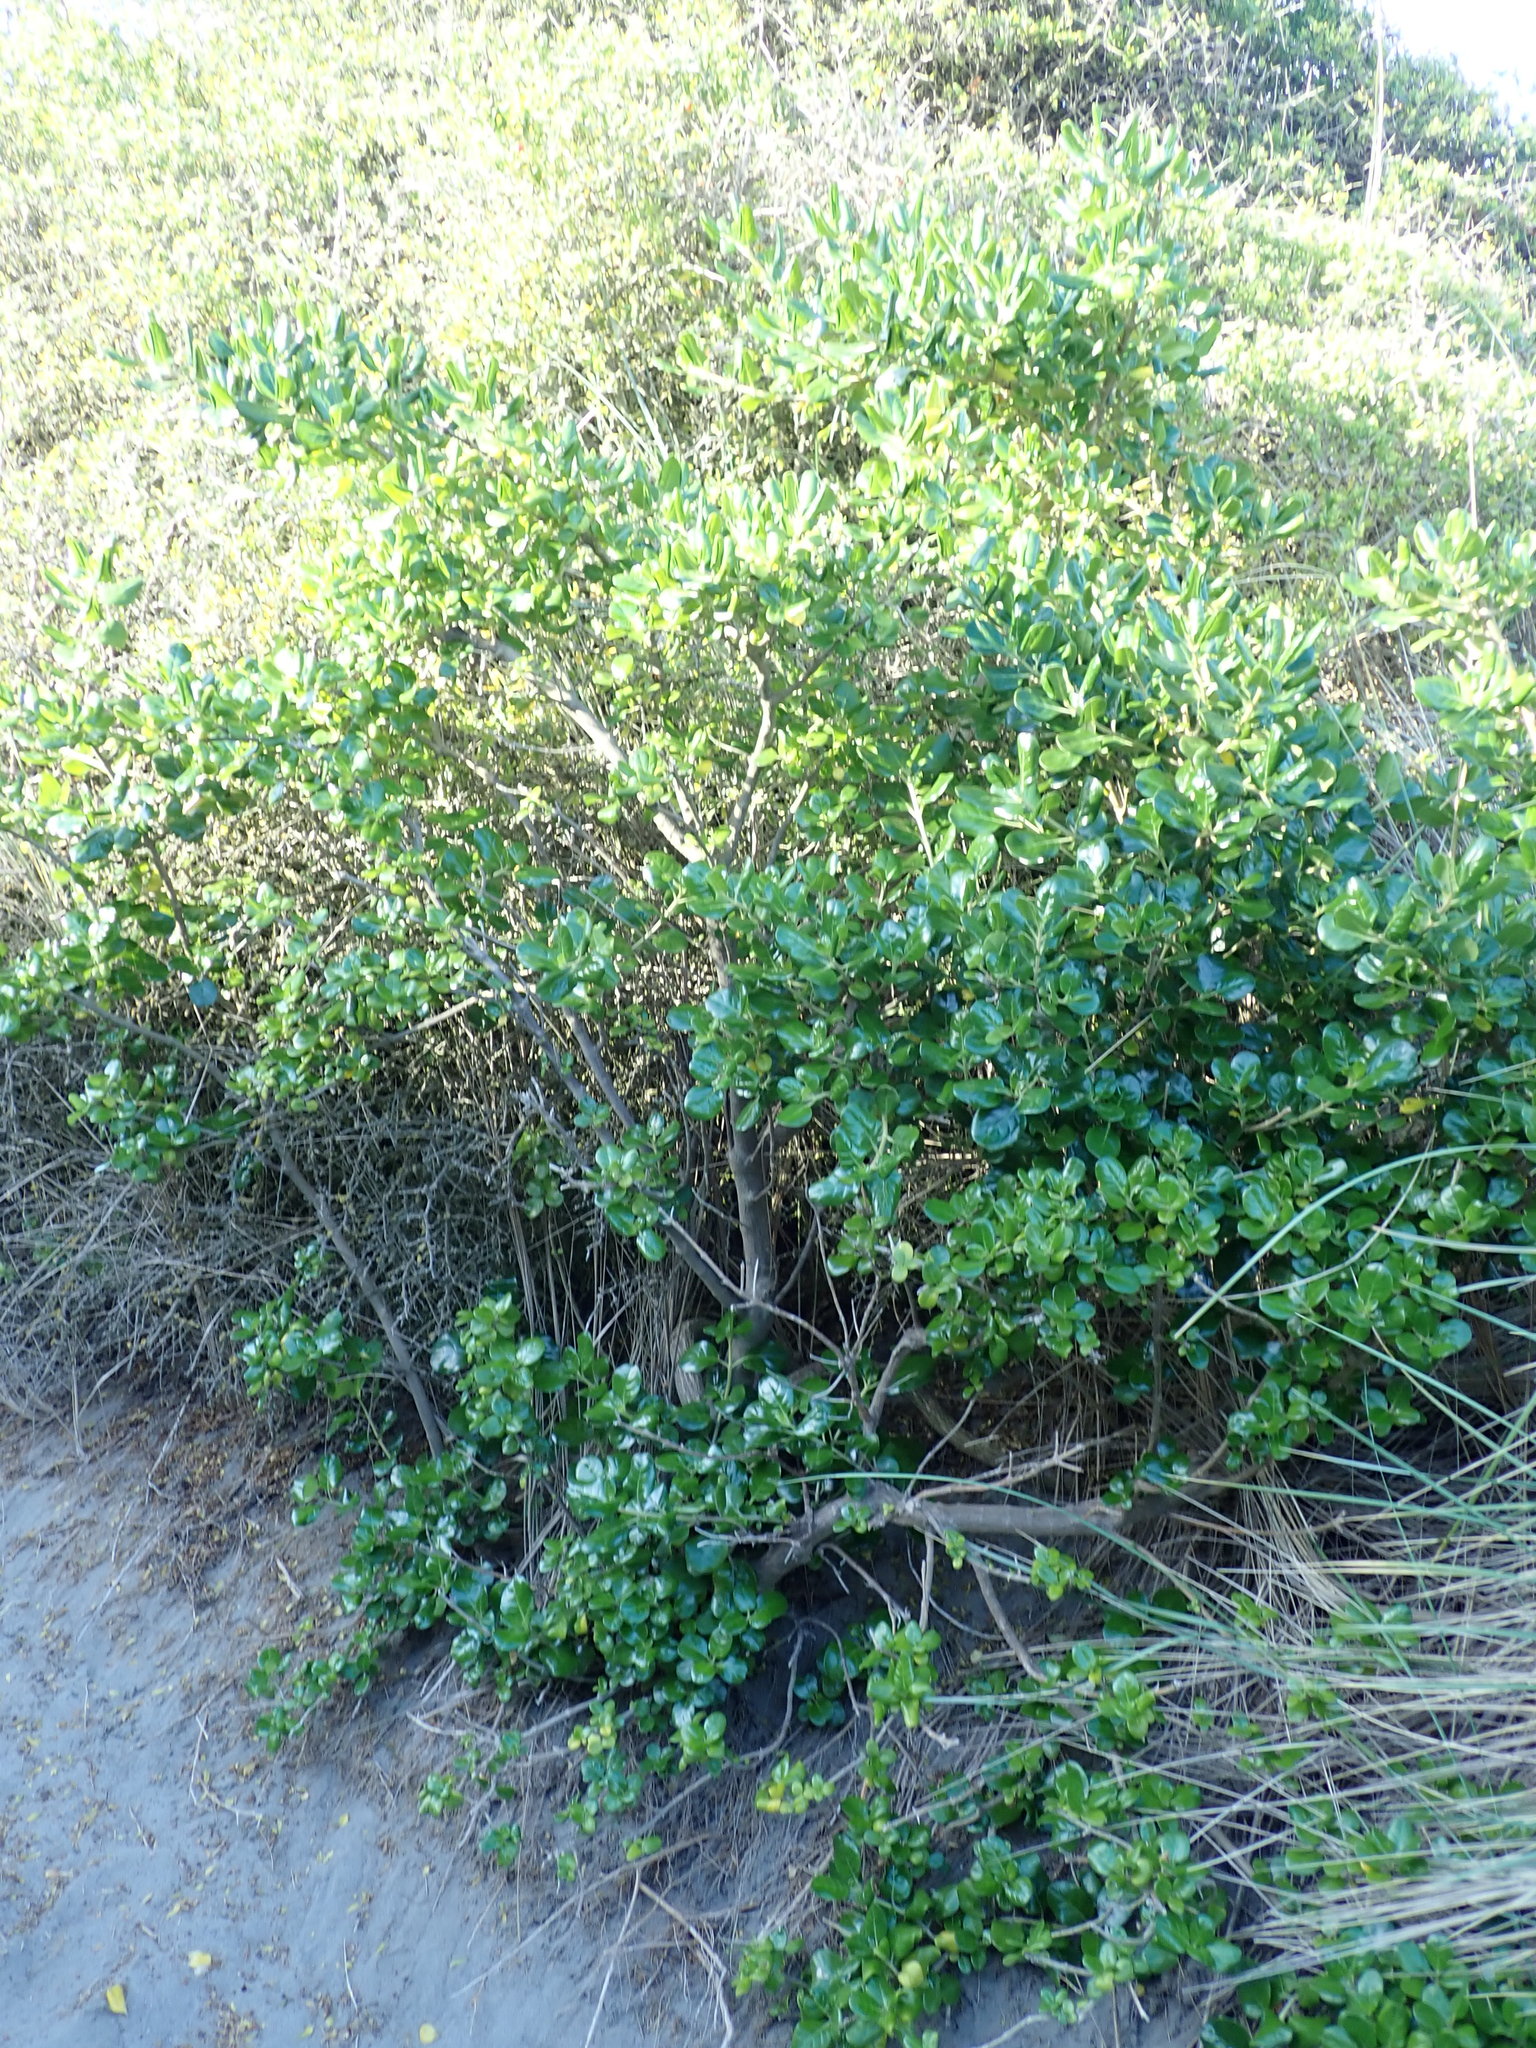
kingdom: Plantae
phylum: Tracheophyta
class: Magnoliopsida
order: Gentianales
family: Rubiaceae
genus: Coprosma
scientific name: Coprosma repens
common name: Tree bedstraw
